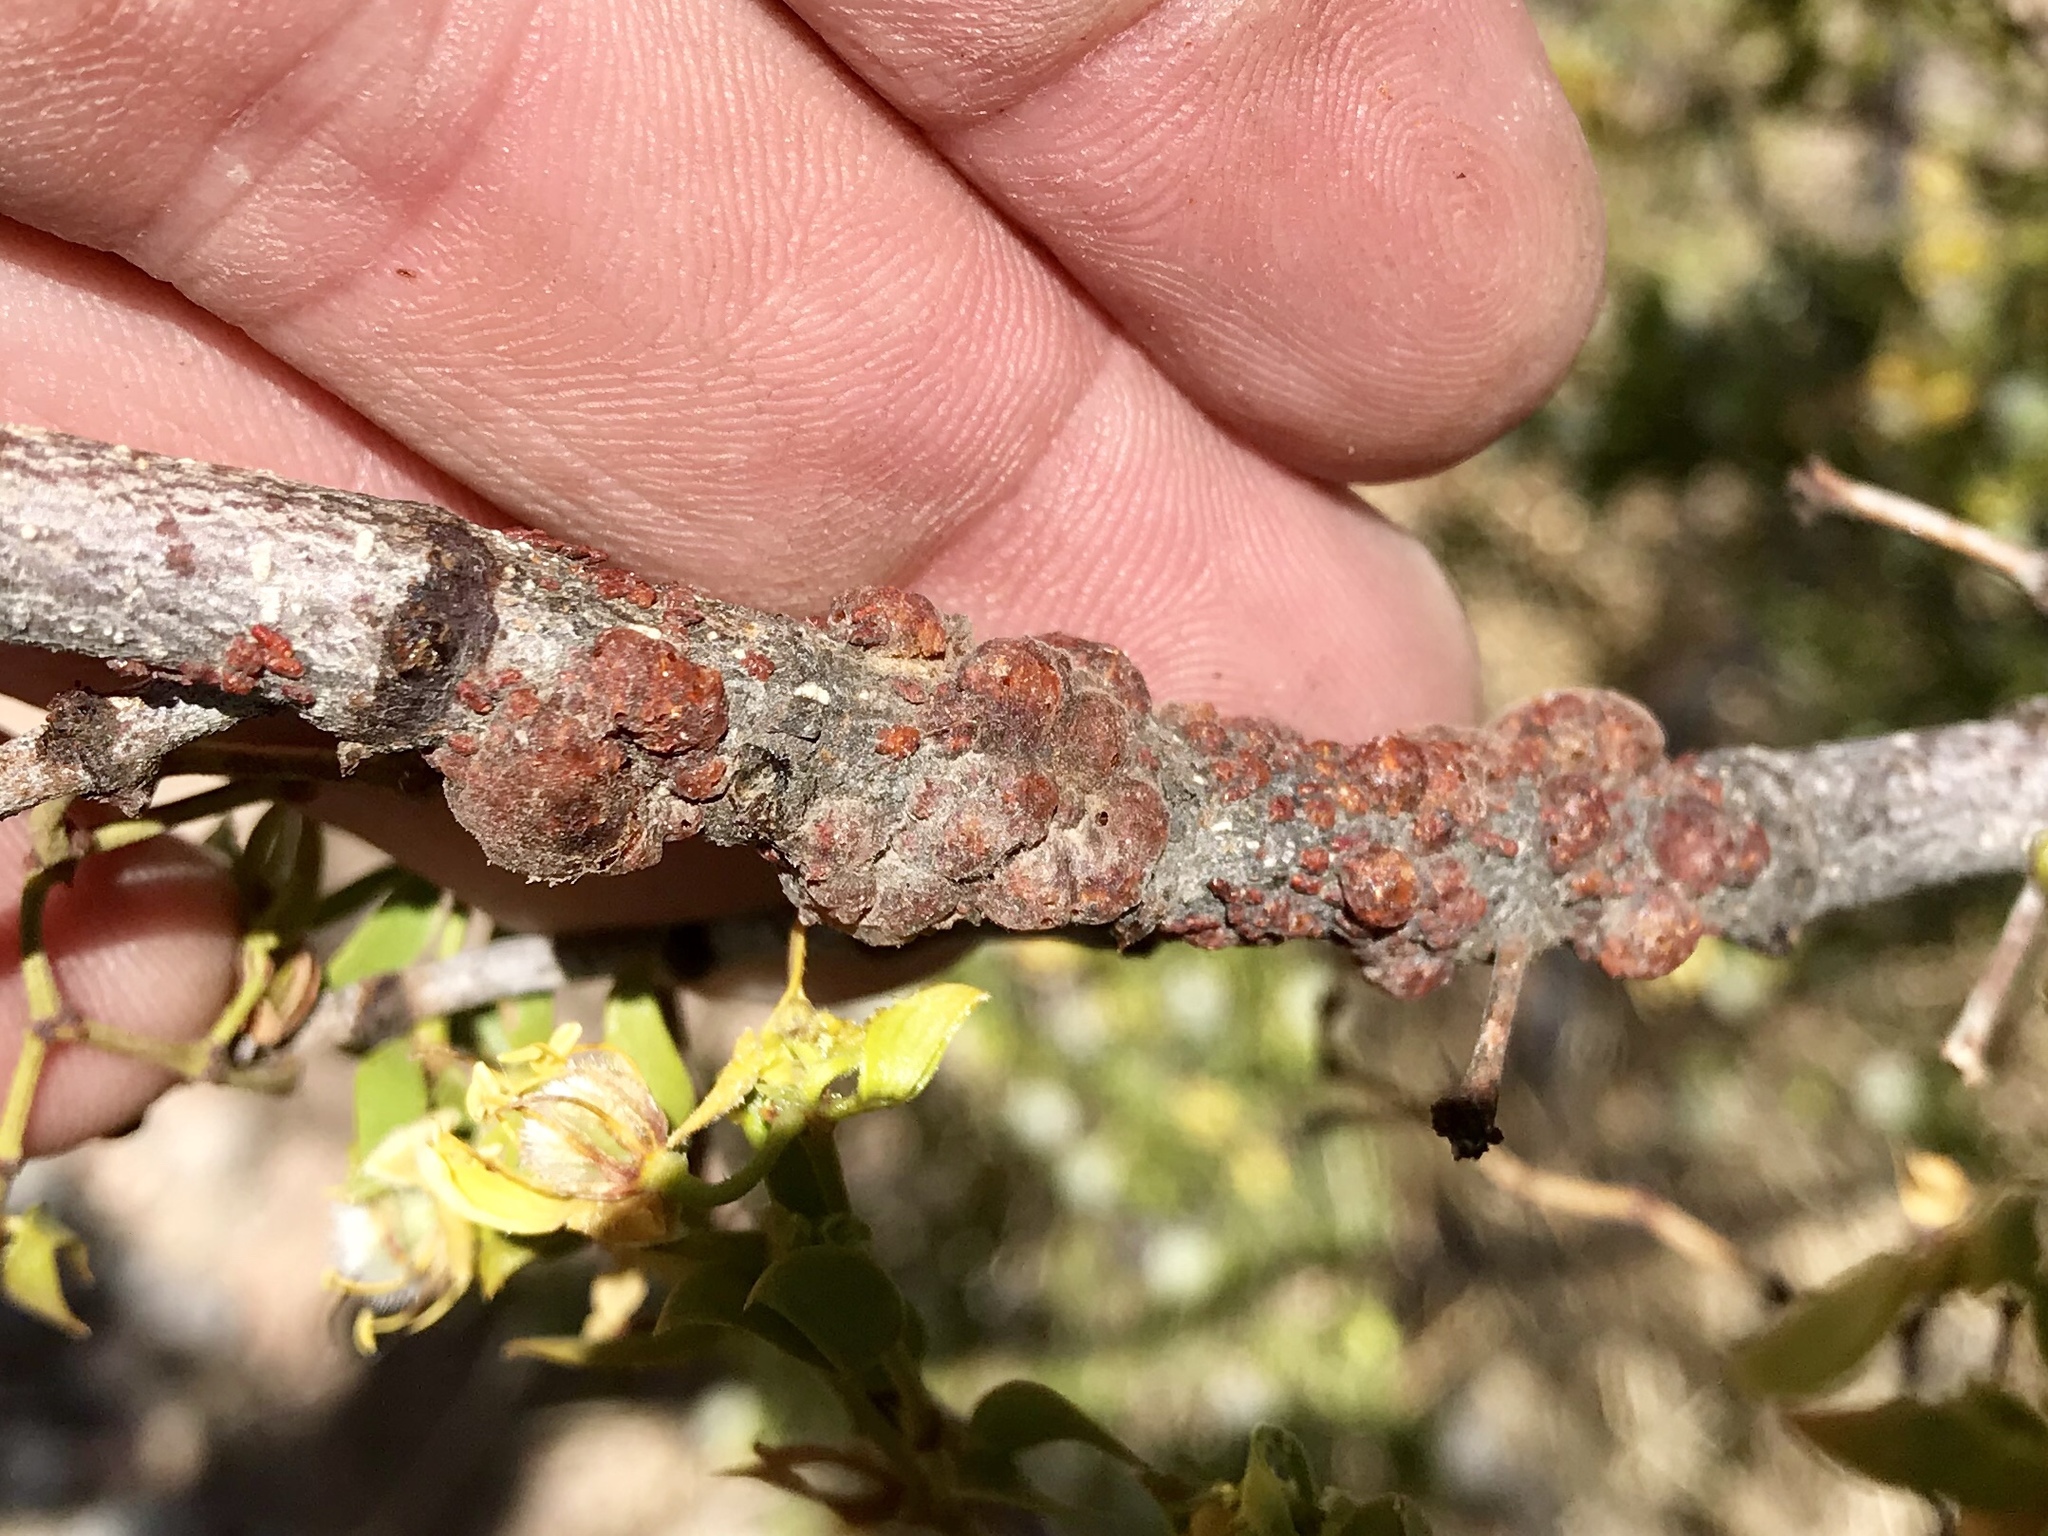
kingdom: Animalia
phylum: Arthropoda
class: Insecta
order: Hemiptera
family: Kerriidae
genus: Tachardiella
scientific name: Tachardiella larreae
